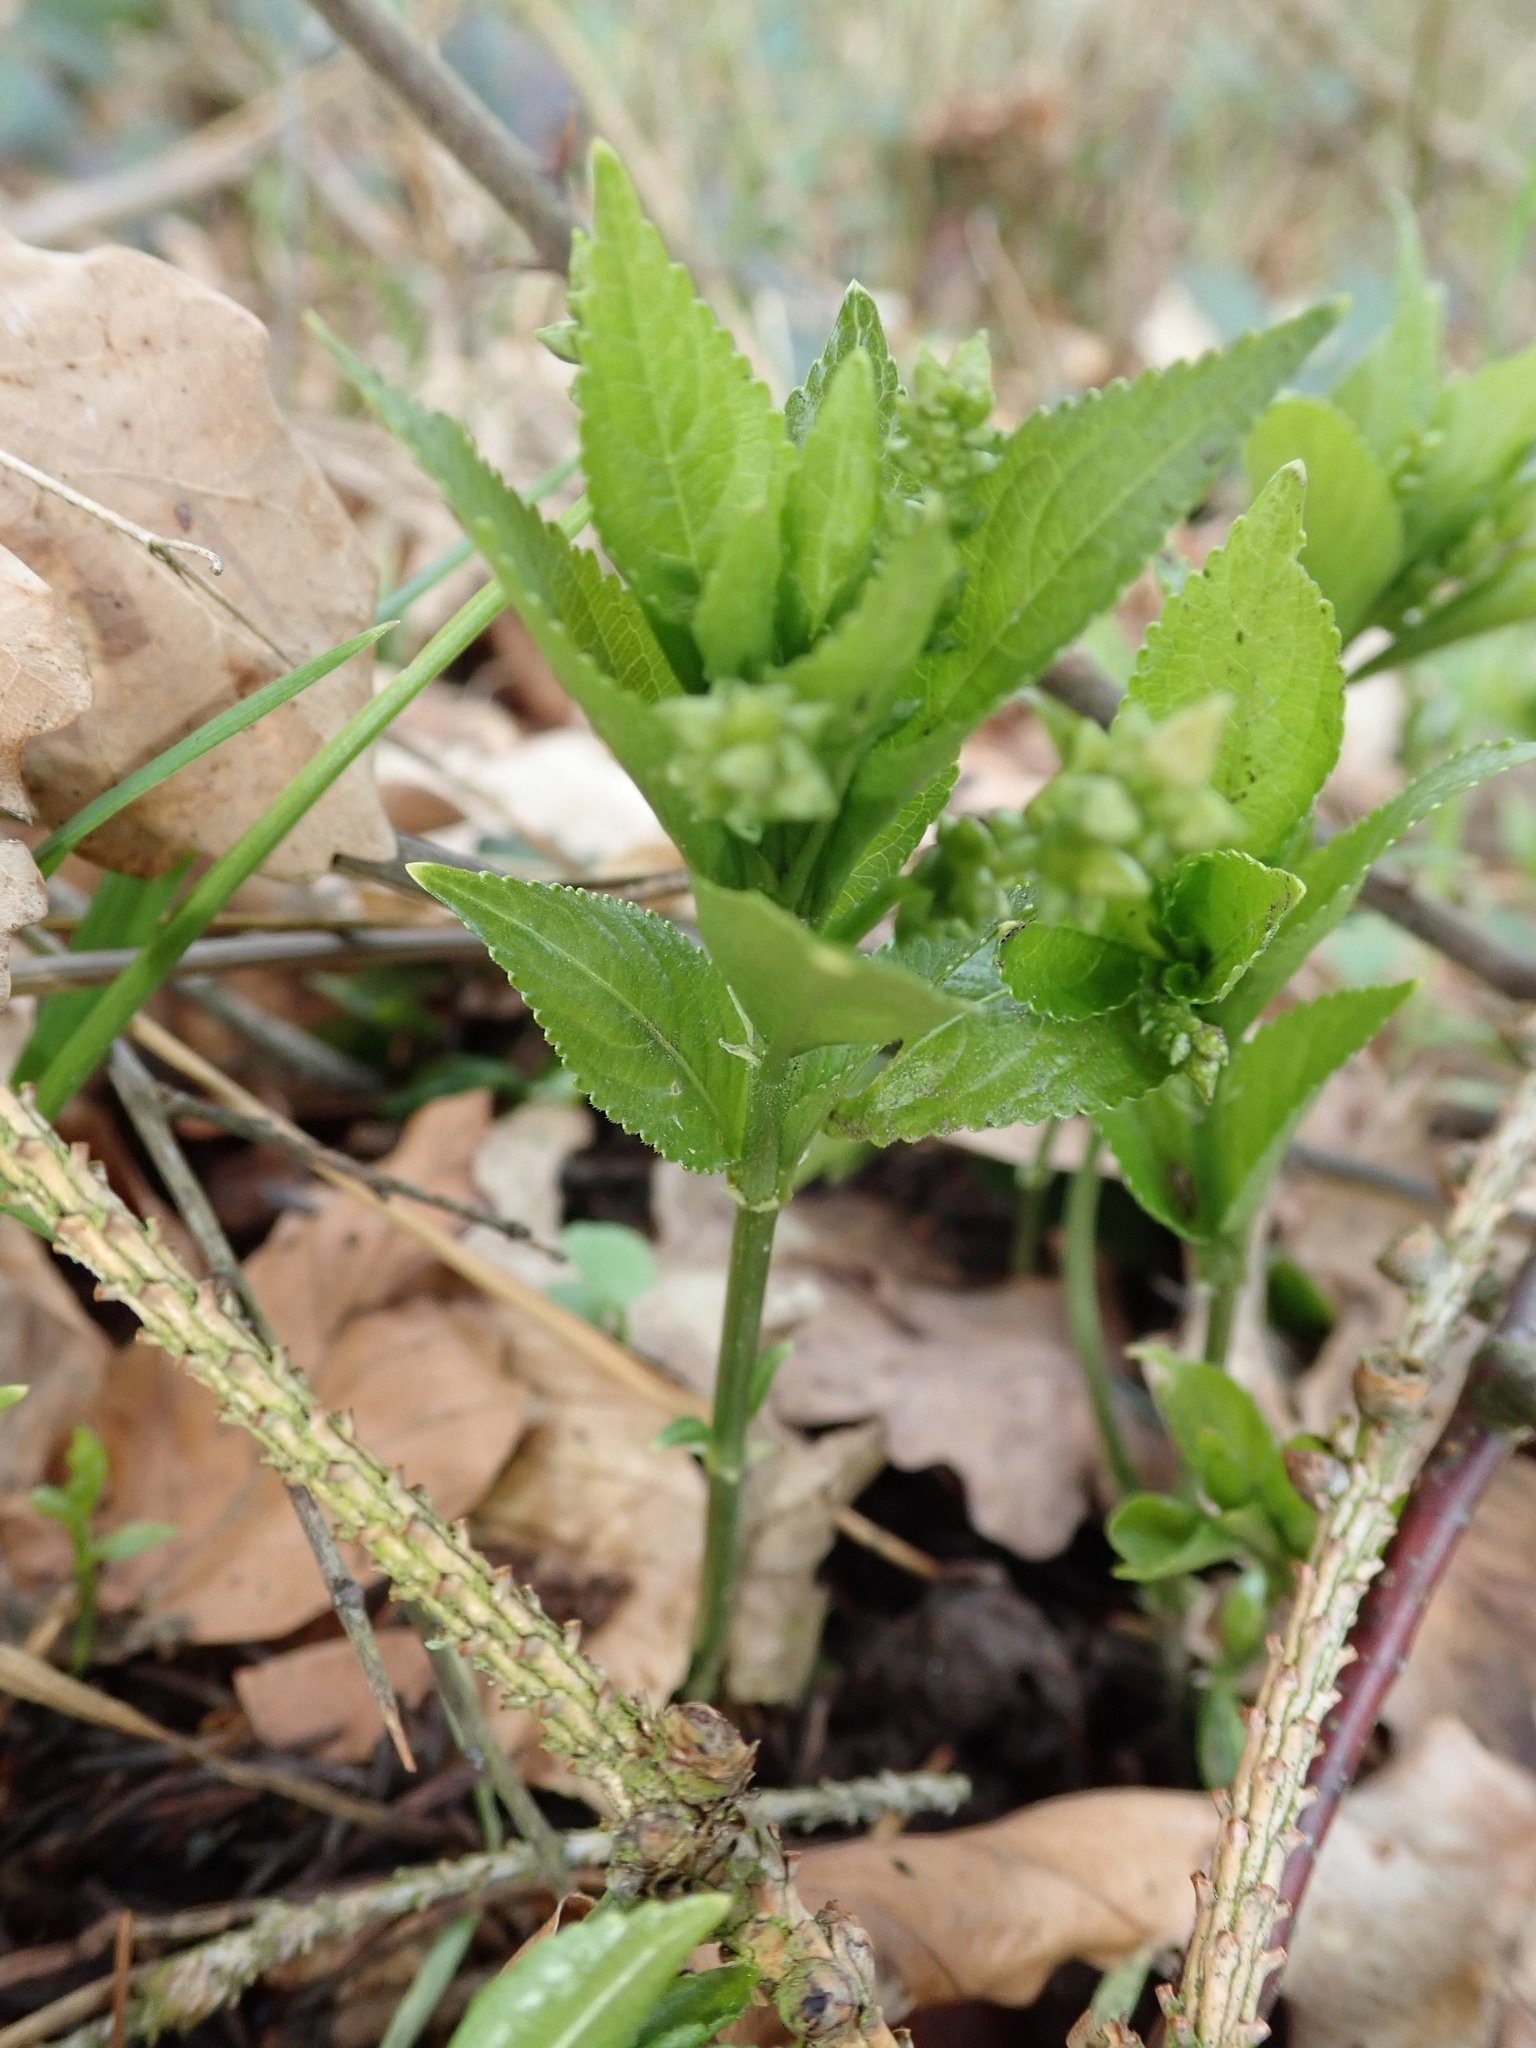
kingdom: Plantae
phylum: Tracheophyta
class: Magnoliopsida
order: Malpighiales
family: Euphorbiaceae
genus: Mercurialis
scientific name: Mercurialis perennis
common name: Dog mercury
